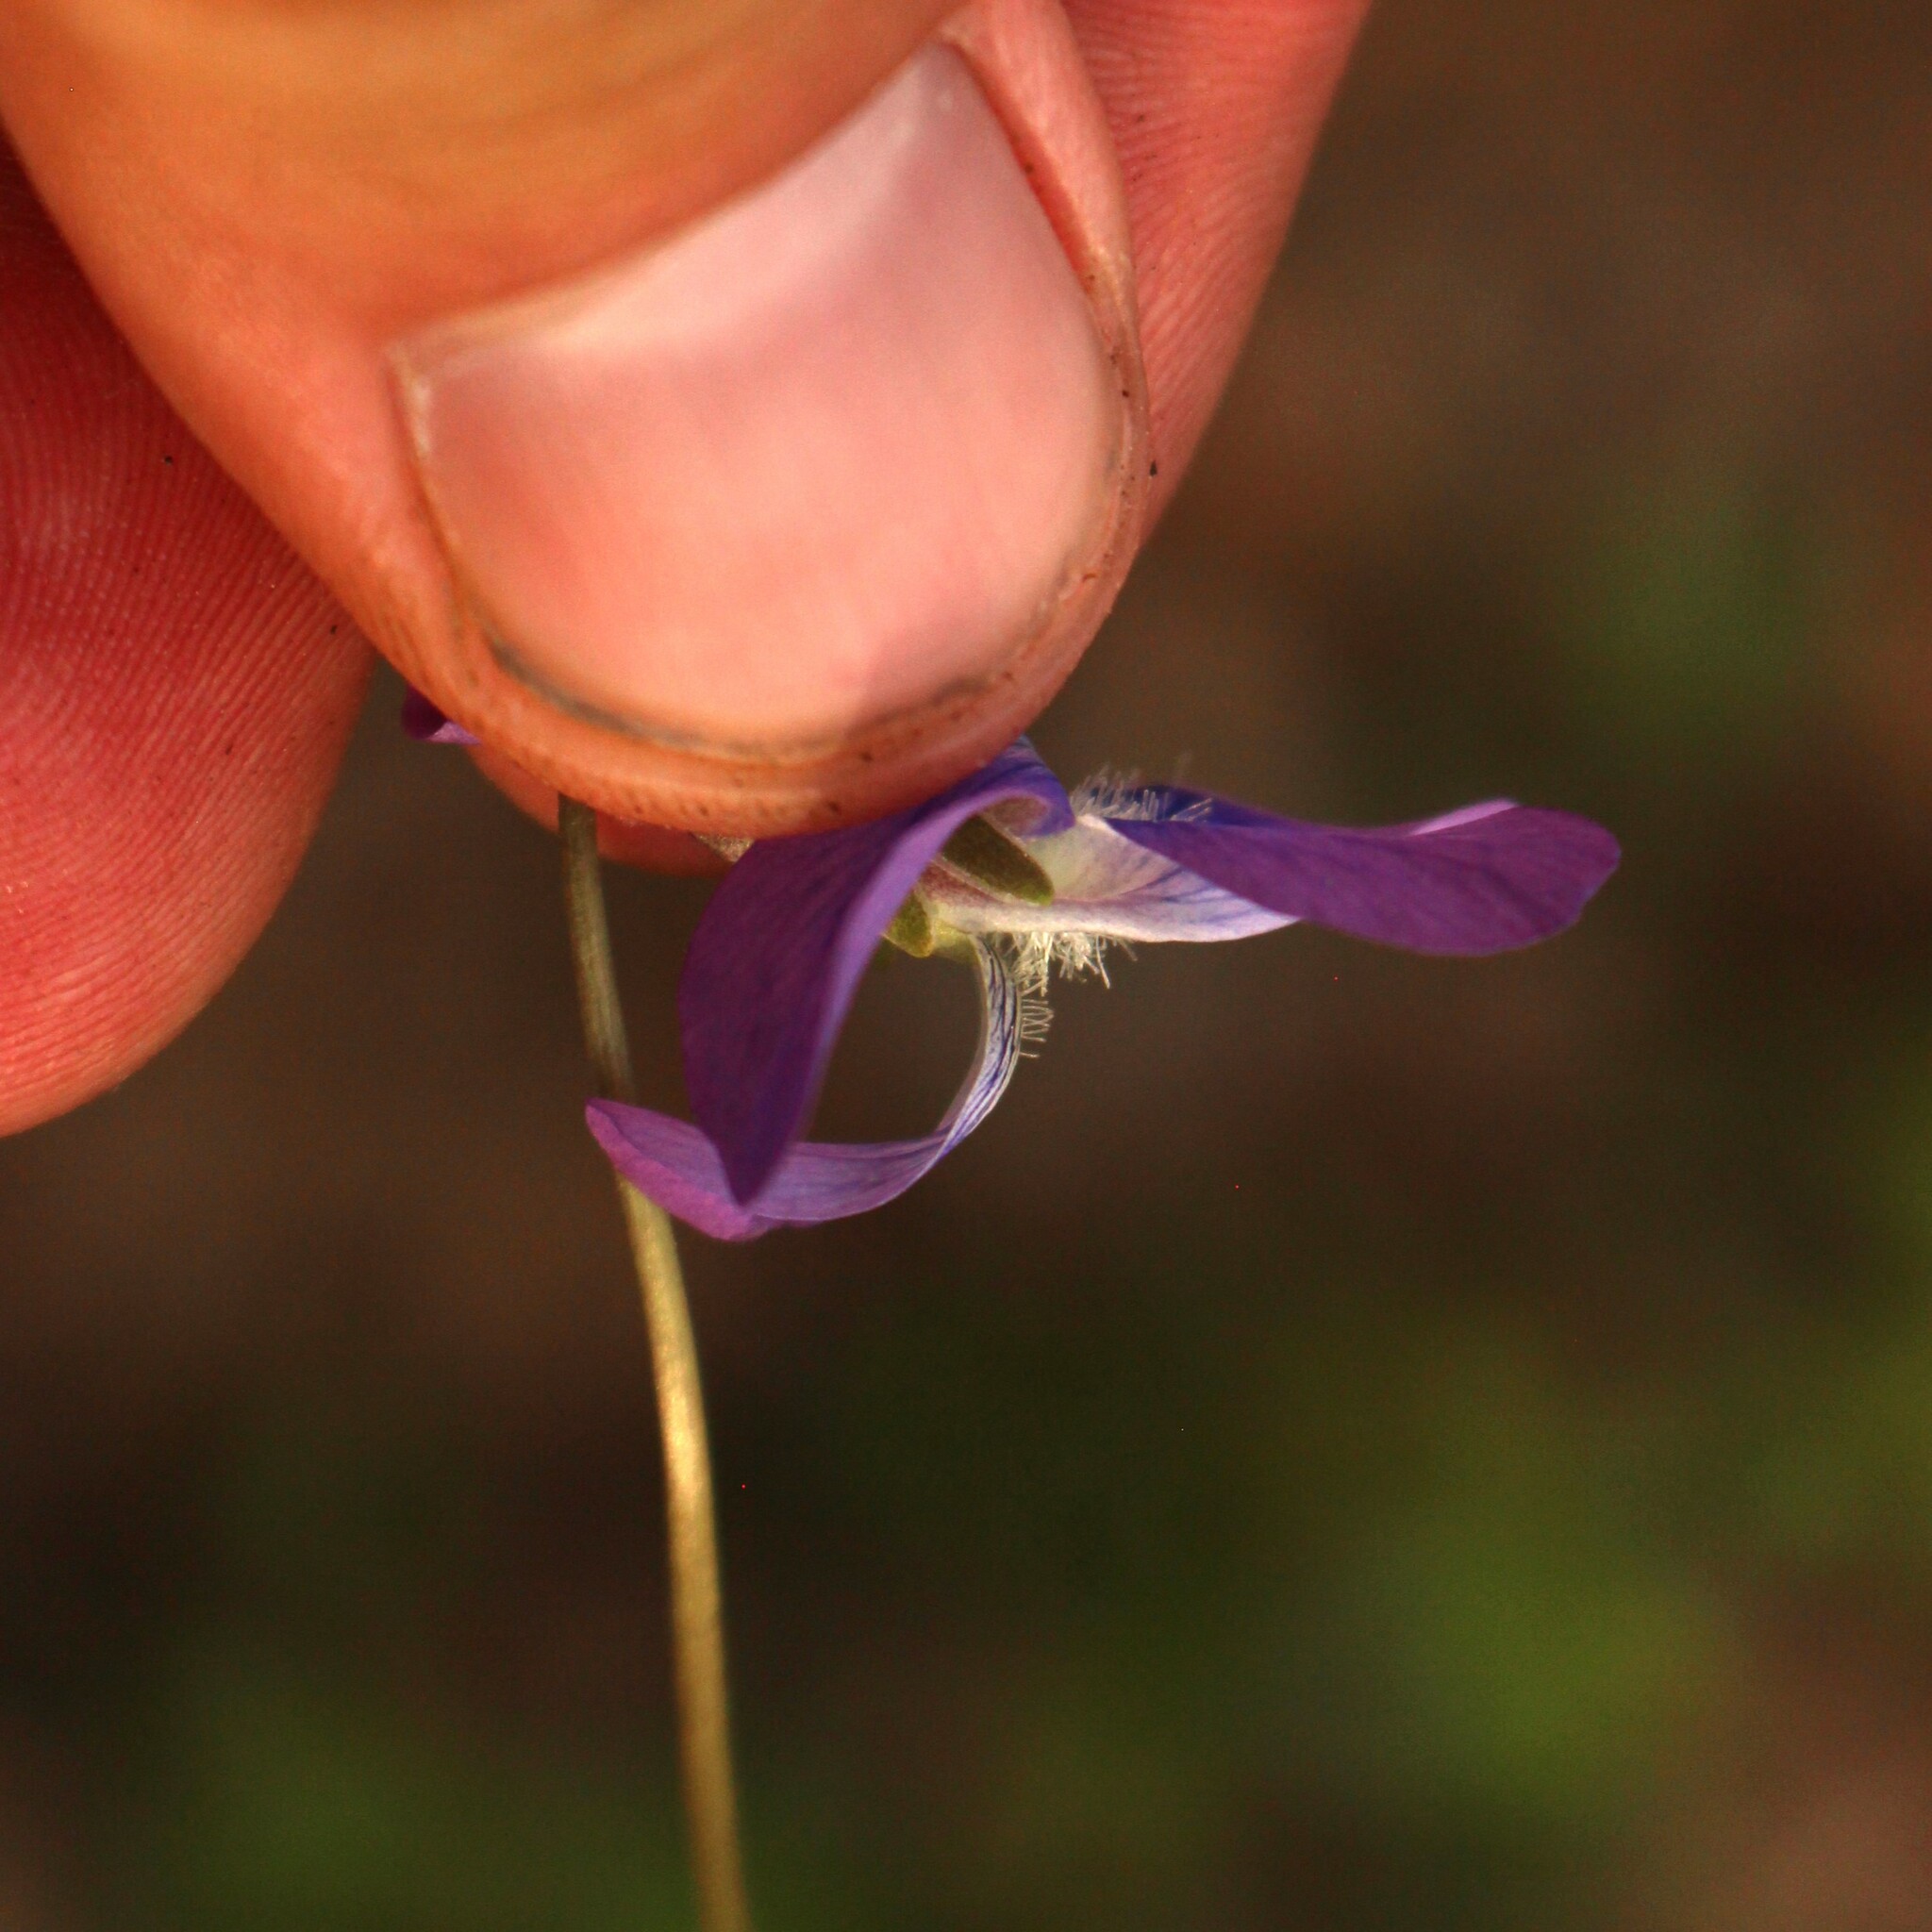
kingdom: Plantae
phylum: Tracheophyta
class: Magnoliopsida
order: Malpighiales
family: Violaceae
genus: Viola
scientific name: Viola hirsutula
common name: Southern wood violet
